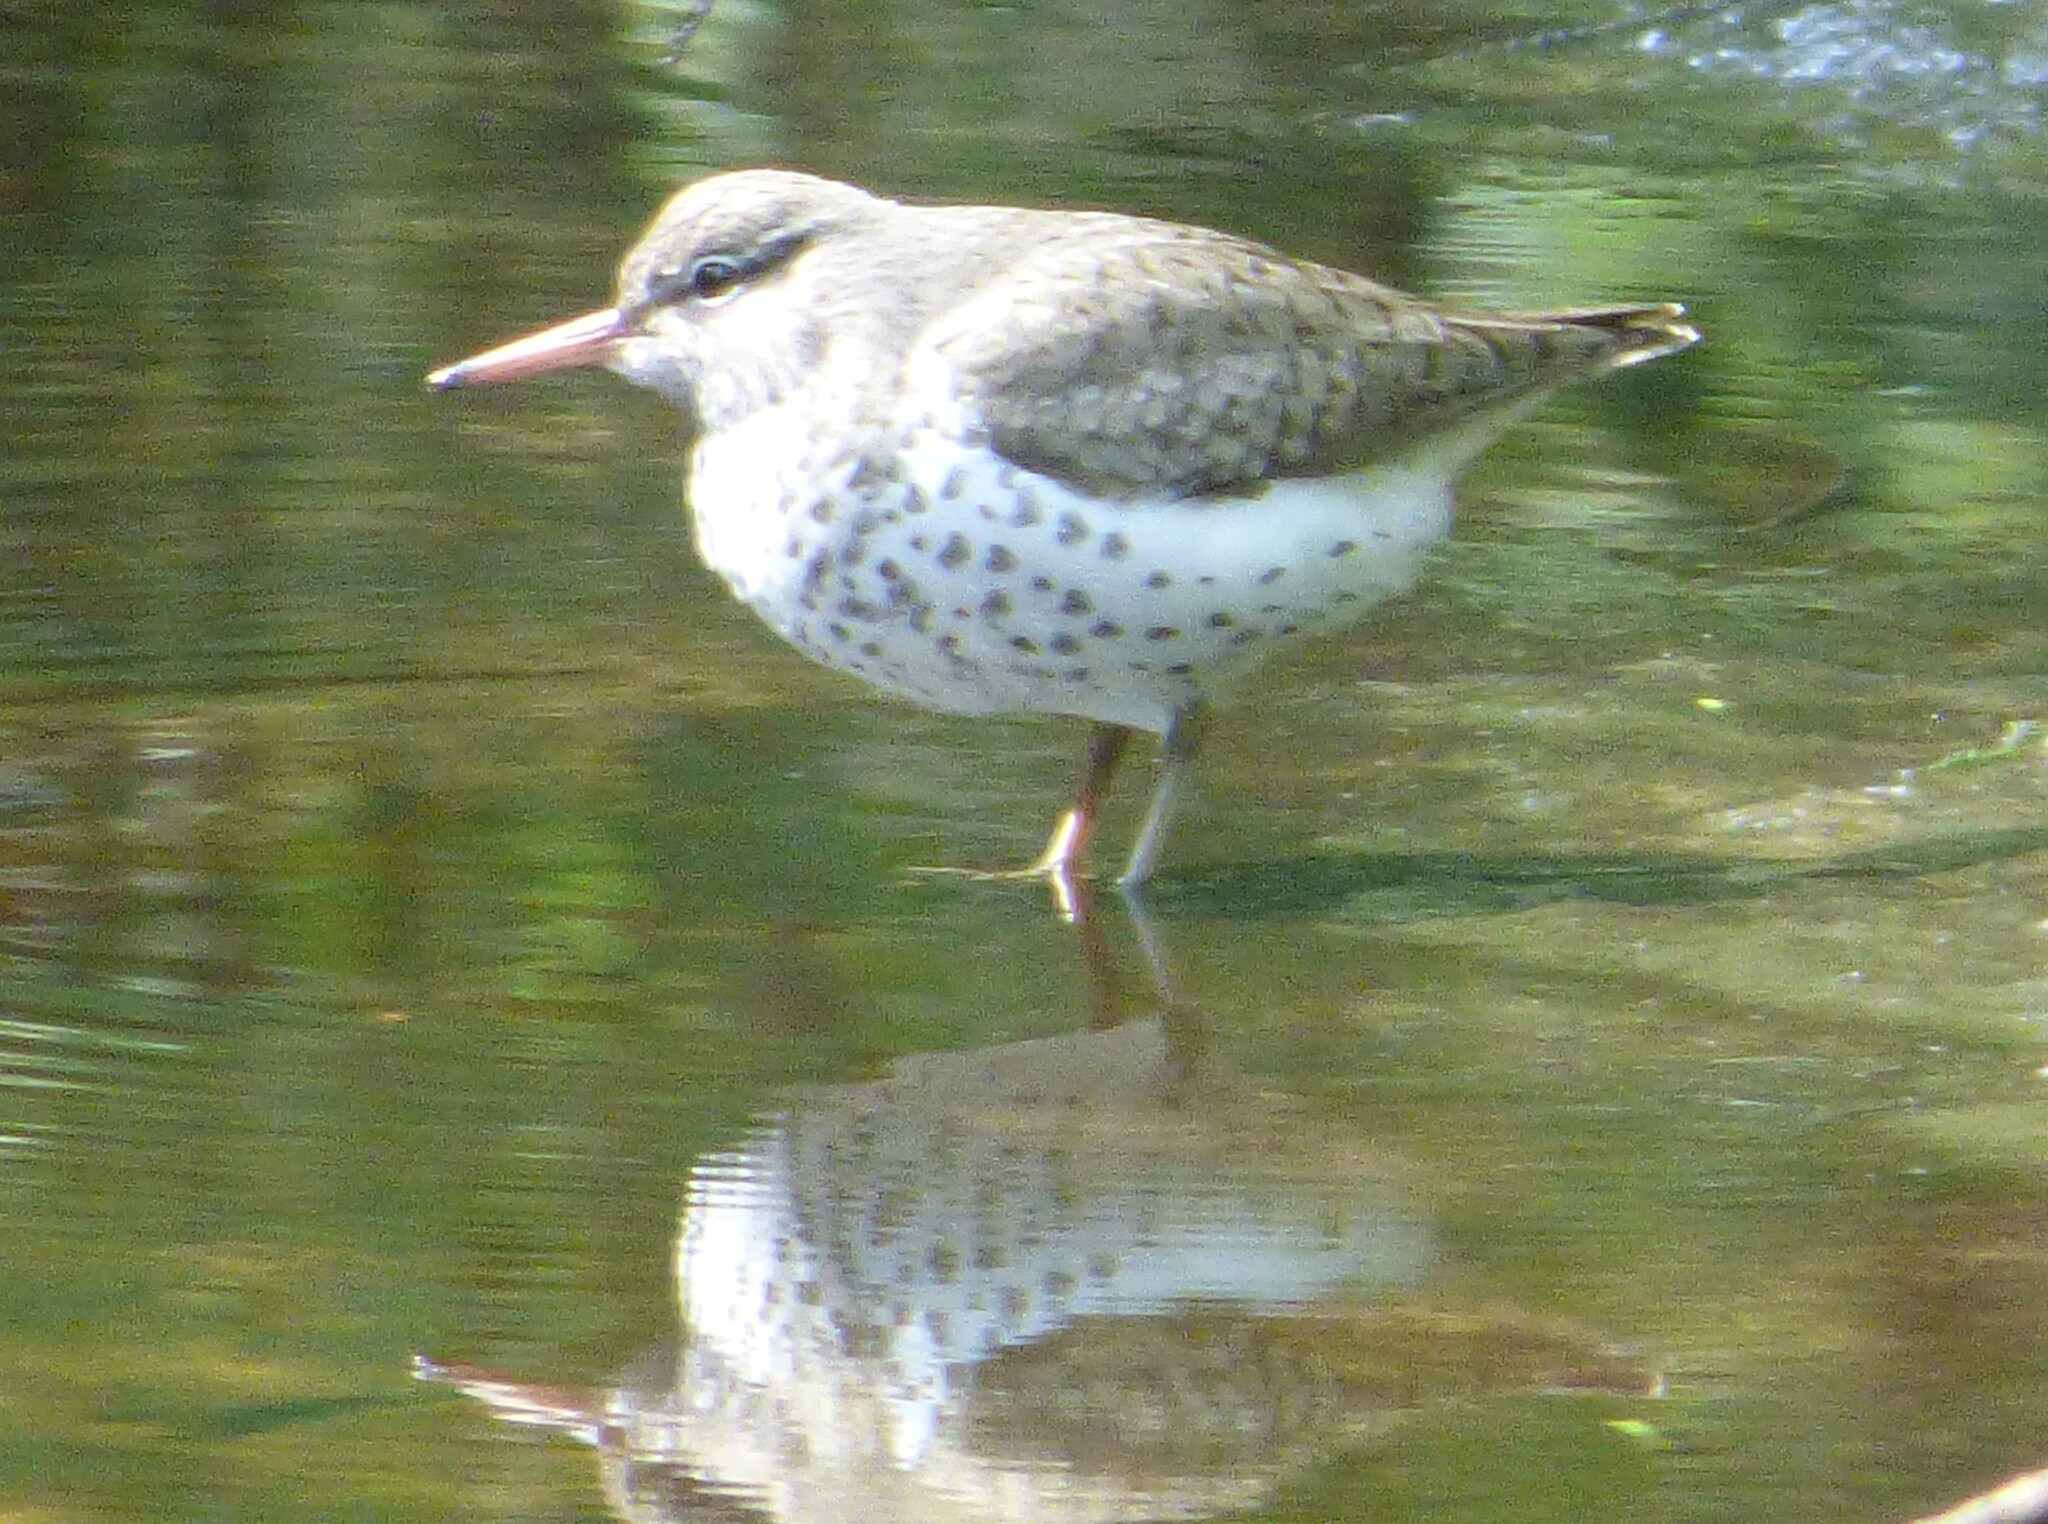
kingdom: Animalia
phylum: Chordata
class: Aves
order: Charadriiformes
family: Scolopacidae
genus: Actitis
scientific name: Actitis macularius
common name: Spotted sandpiper
